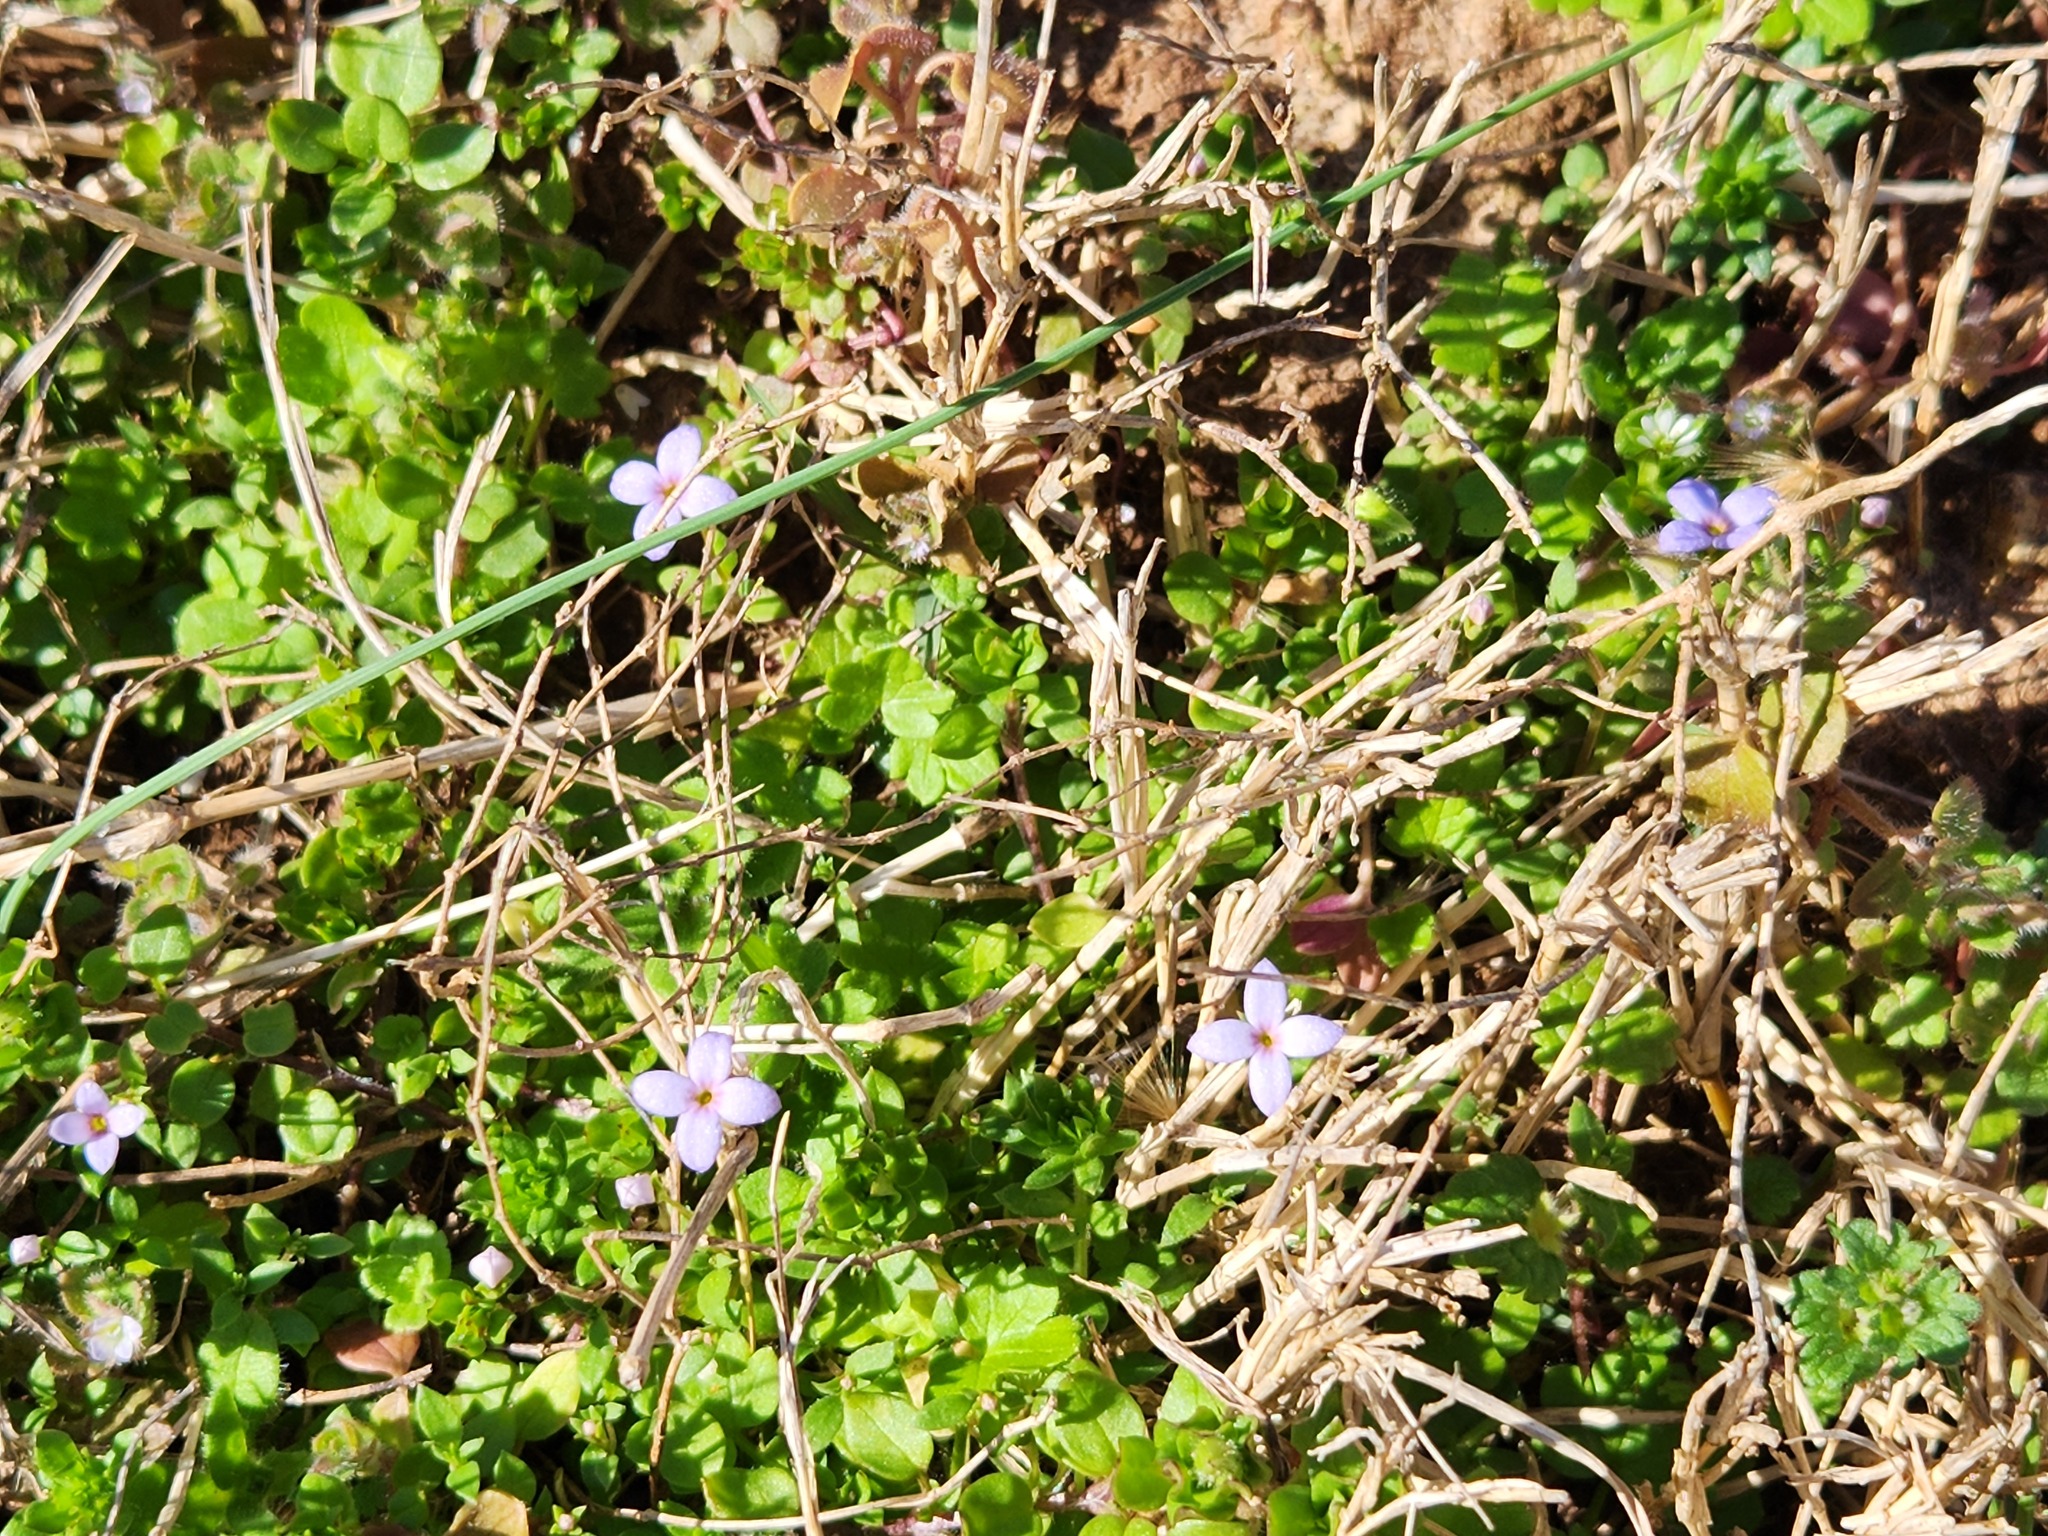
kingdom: Plantae
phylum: Tracheophyta
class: Magnoliopsida
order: Gentianales
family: Rubiaceae
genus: Houstonia
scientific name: Houstonia pusilla
